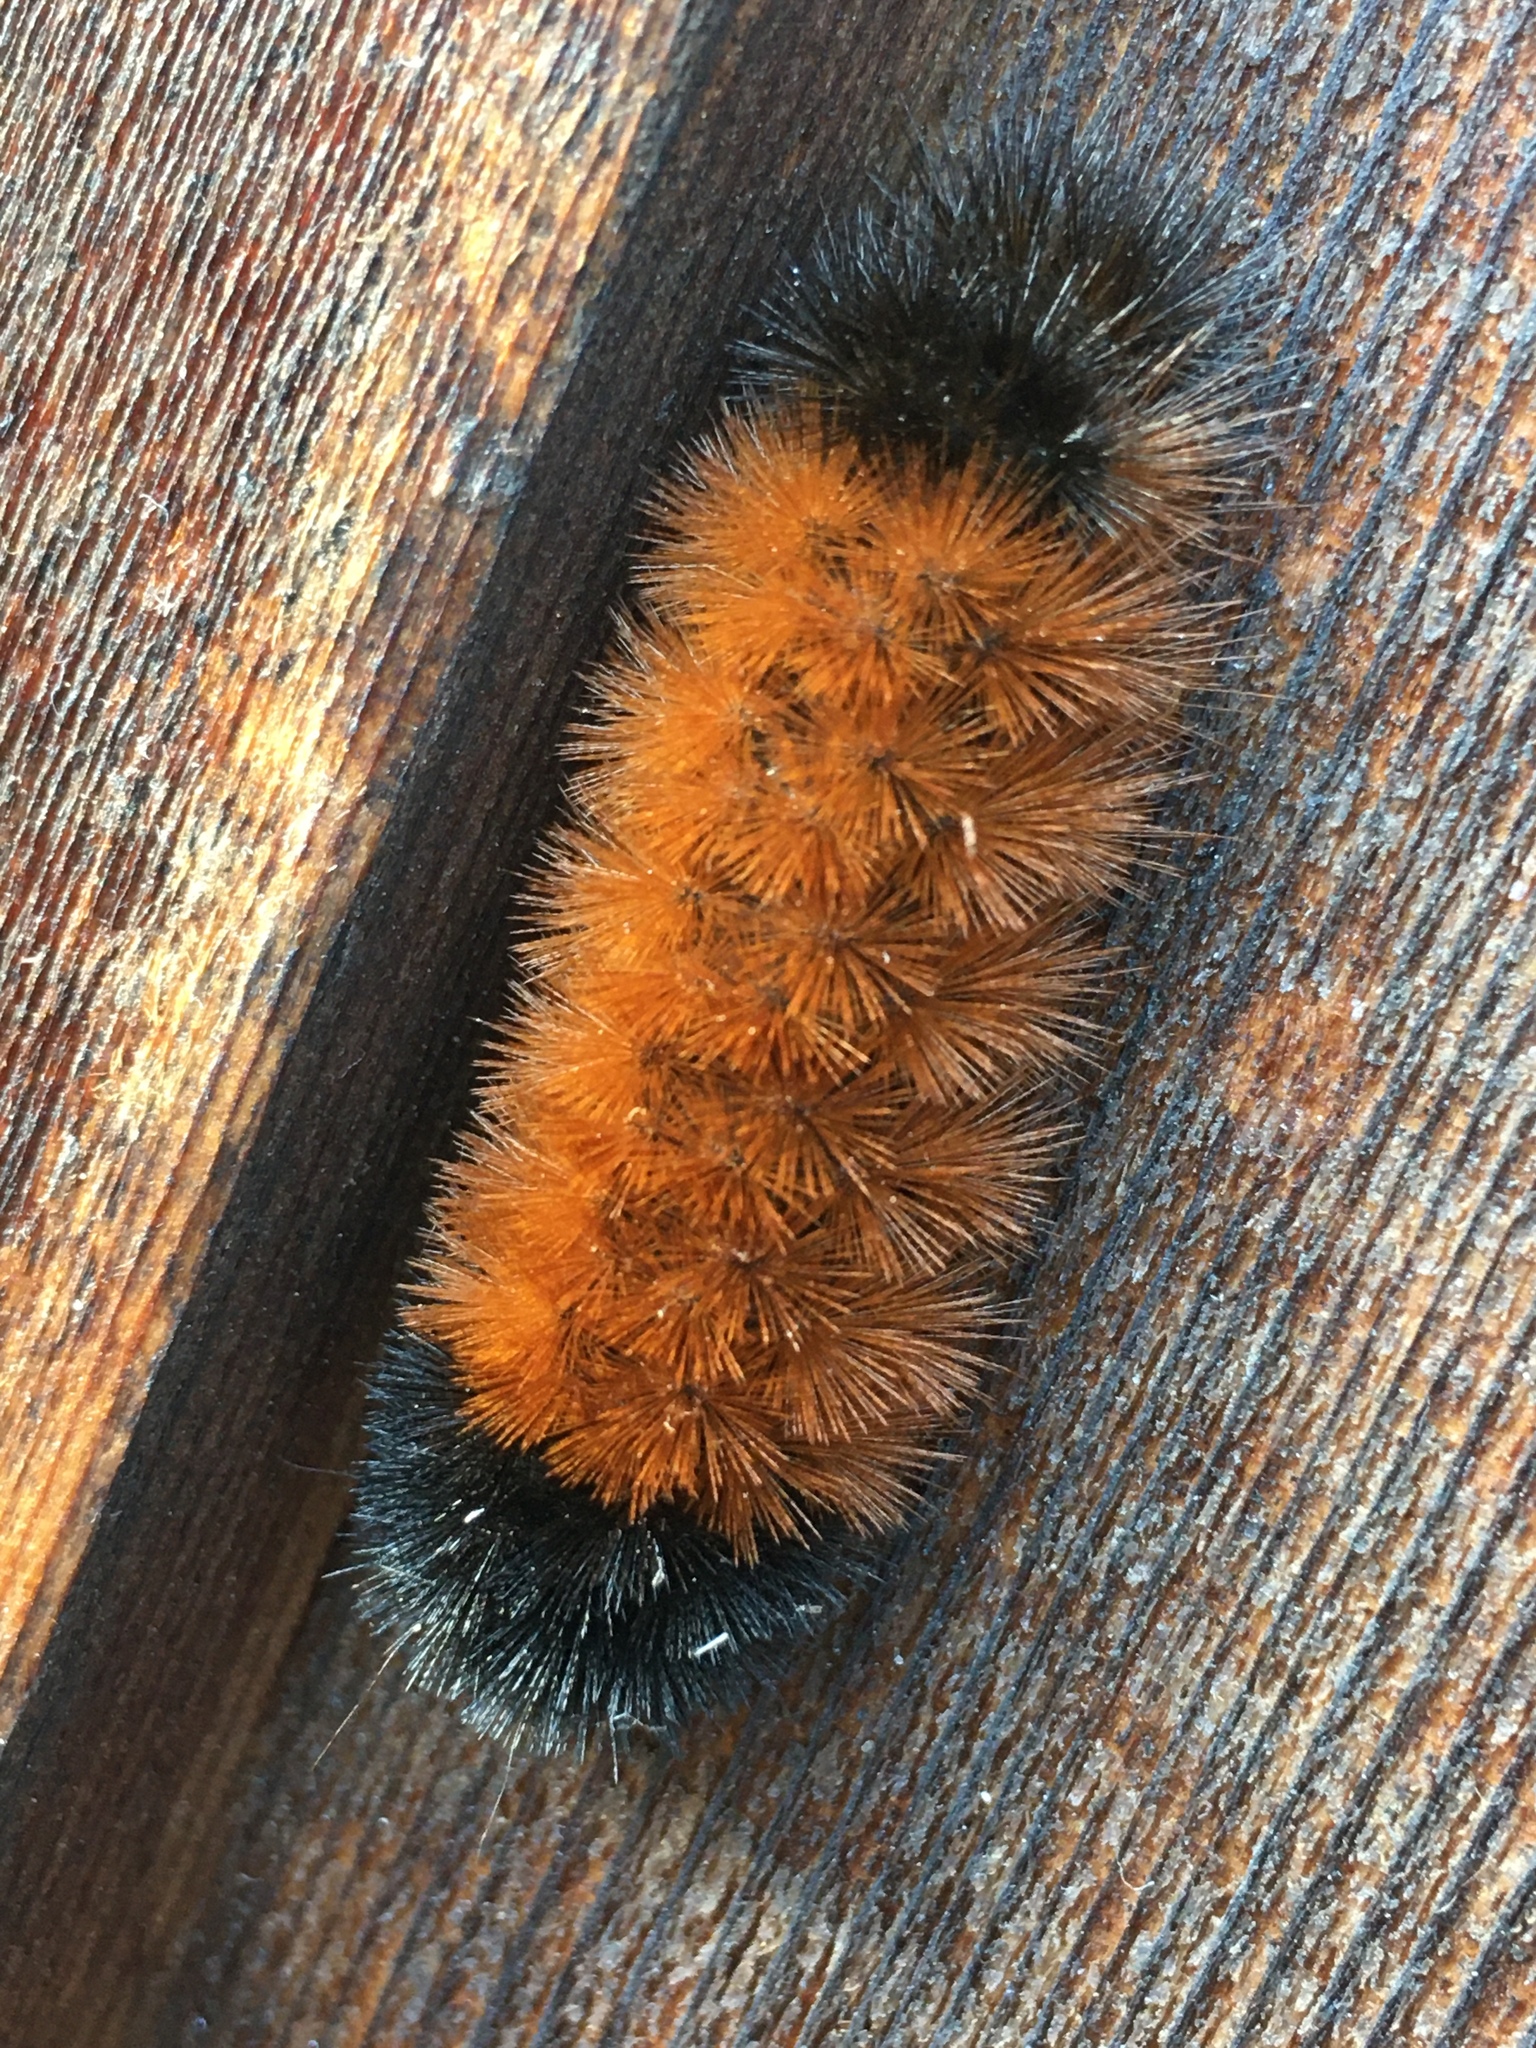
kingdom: Animalia
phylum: Arthropoda
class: Insecta
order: Lepidoptera
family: Erebidae
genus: Pyrrharctia
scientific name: Pyrrharctia isabella
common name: Isabella tiger moth
